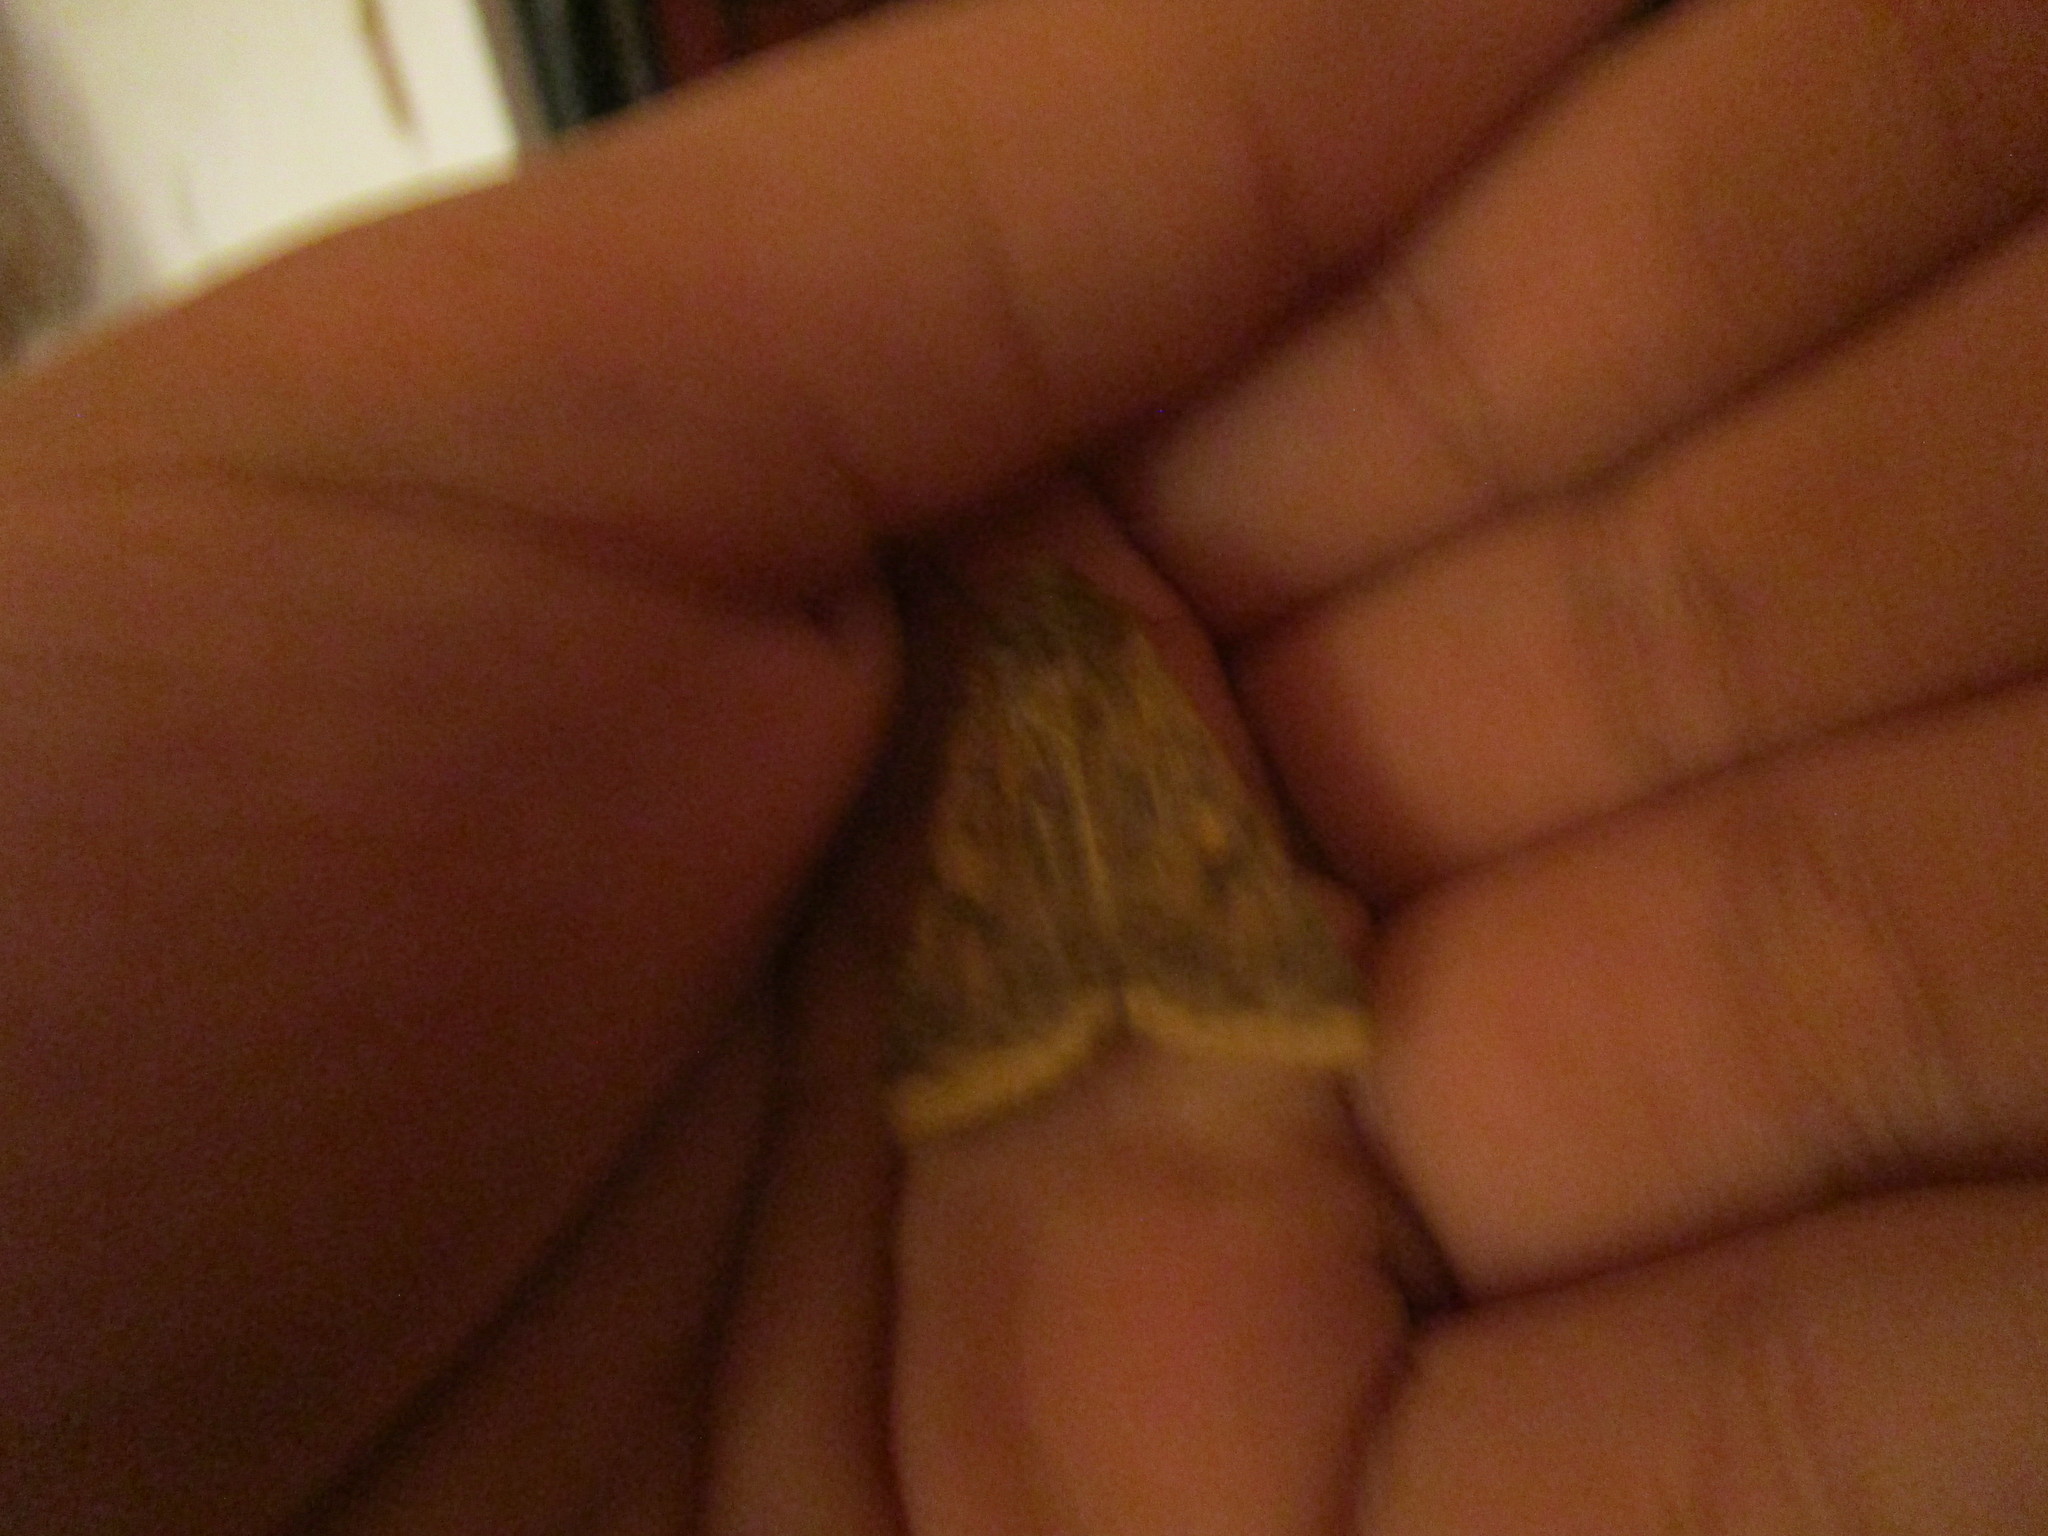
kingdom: Animalia
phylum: Arthropoda
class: Insecta
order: Lepidoptera
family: Noctuidae
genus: Helicoverpa
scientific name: Helicoverpa zea
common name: Bollworm
